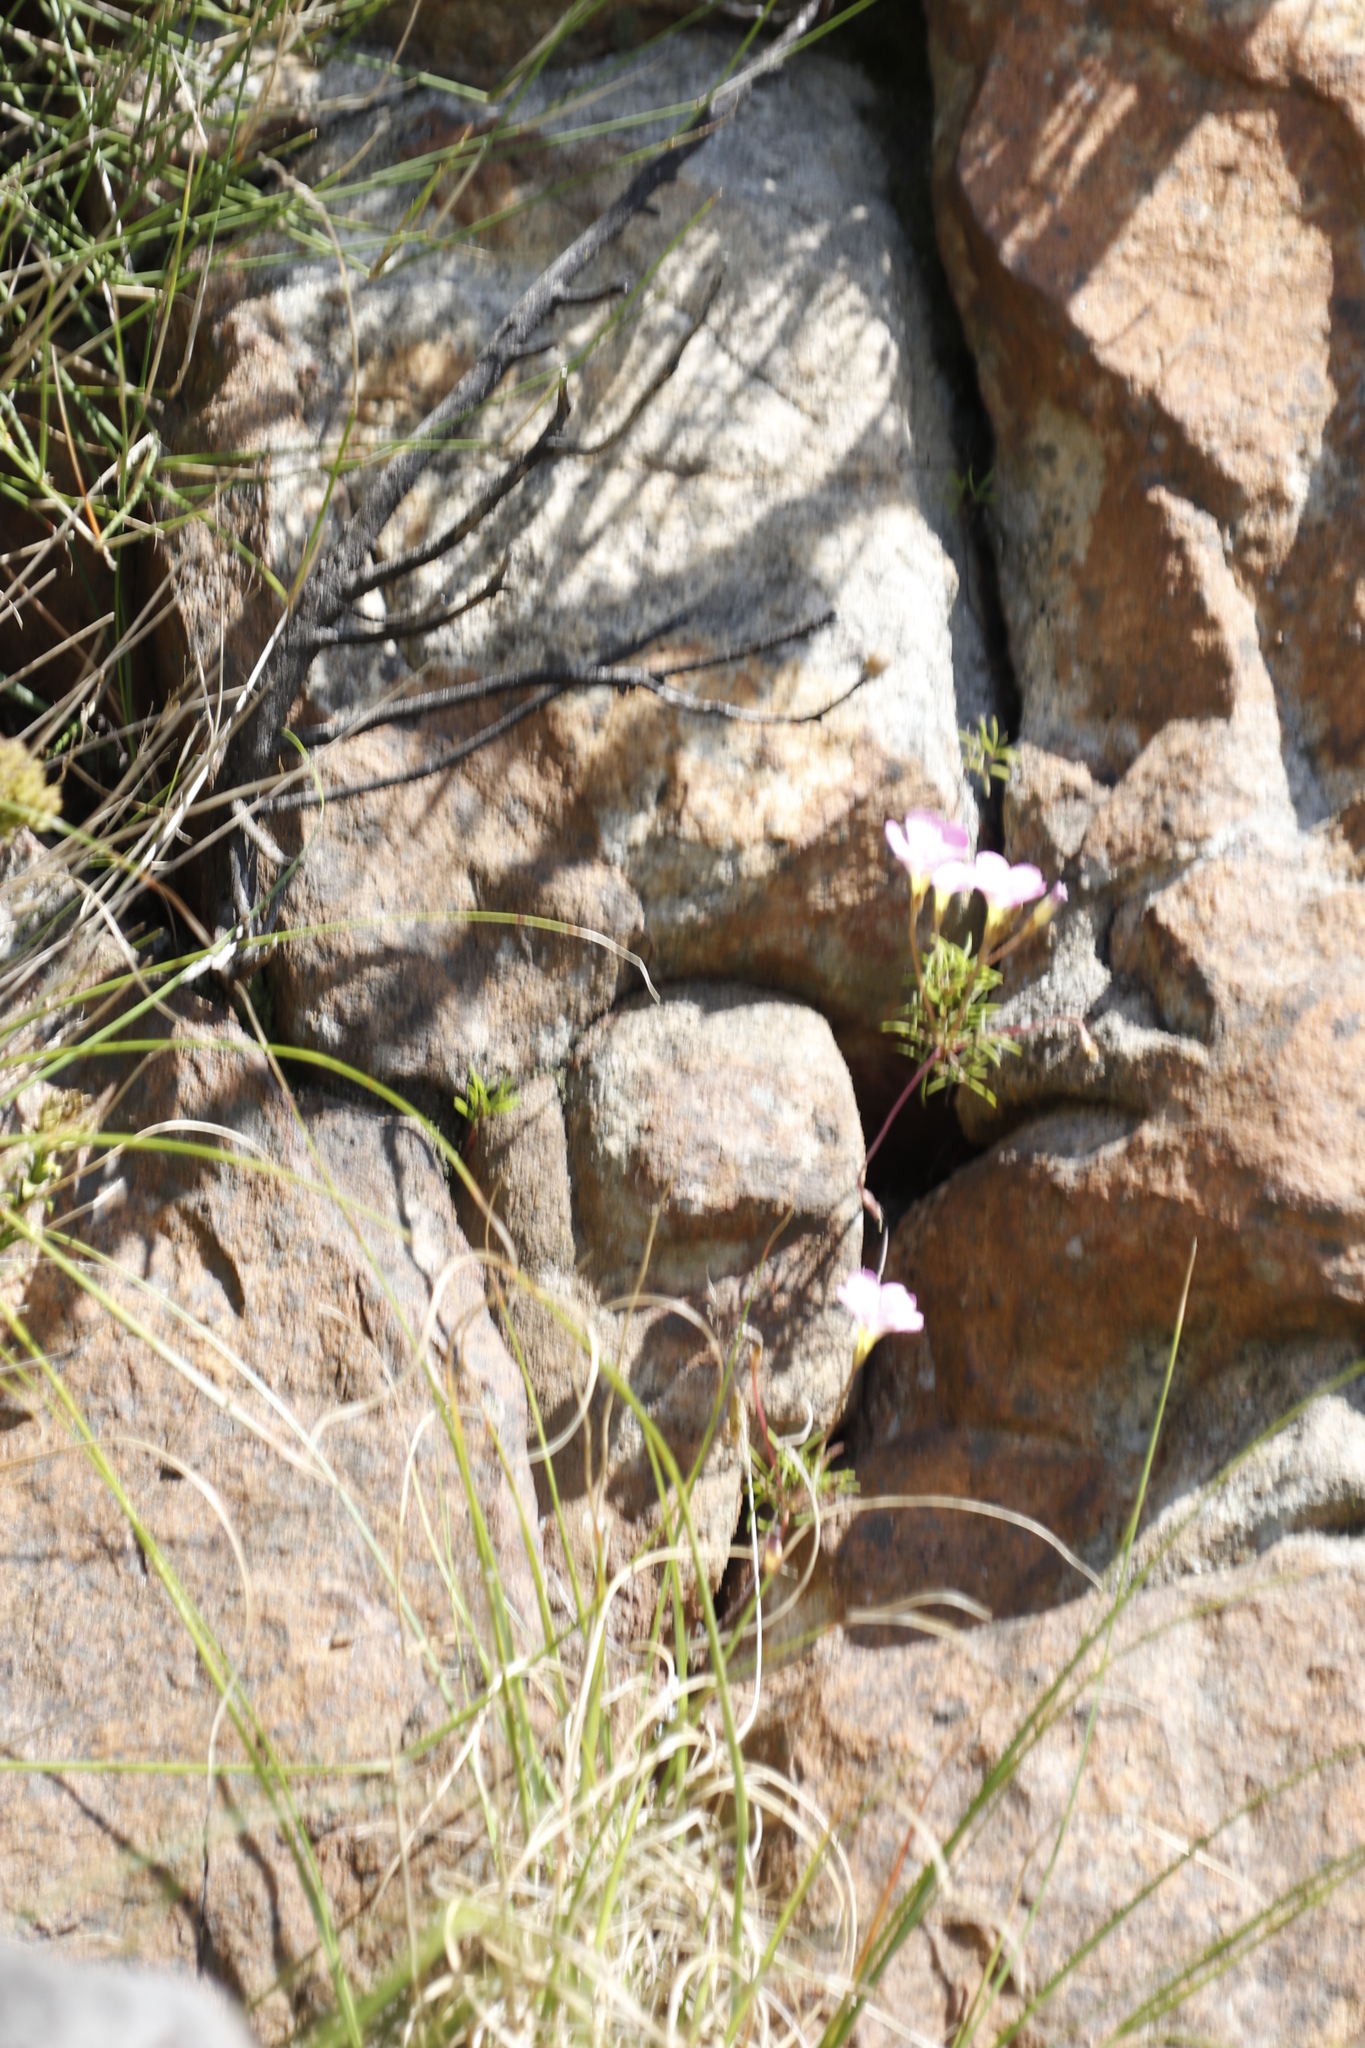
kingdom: Plantae
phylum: Tracheophyta
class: Magnoliopsida
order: Oxalidales
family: Oxalidaceae
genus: Oxalis
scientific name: Oxalis polyphylla
